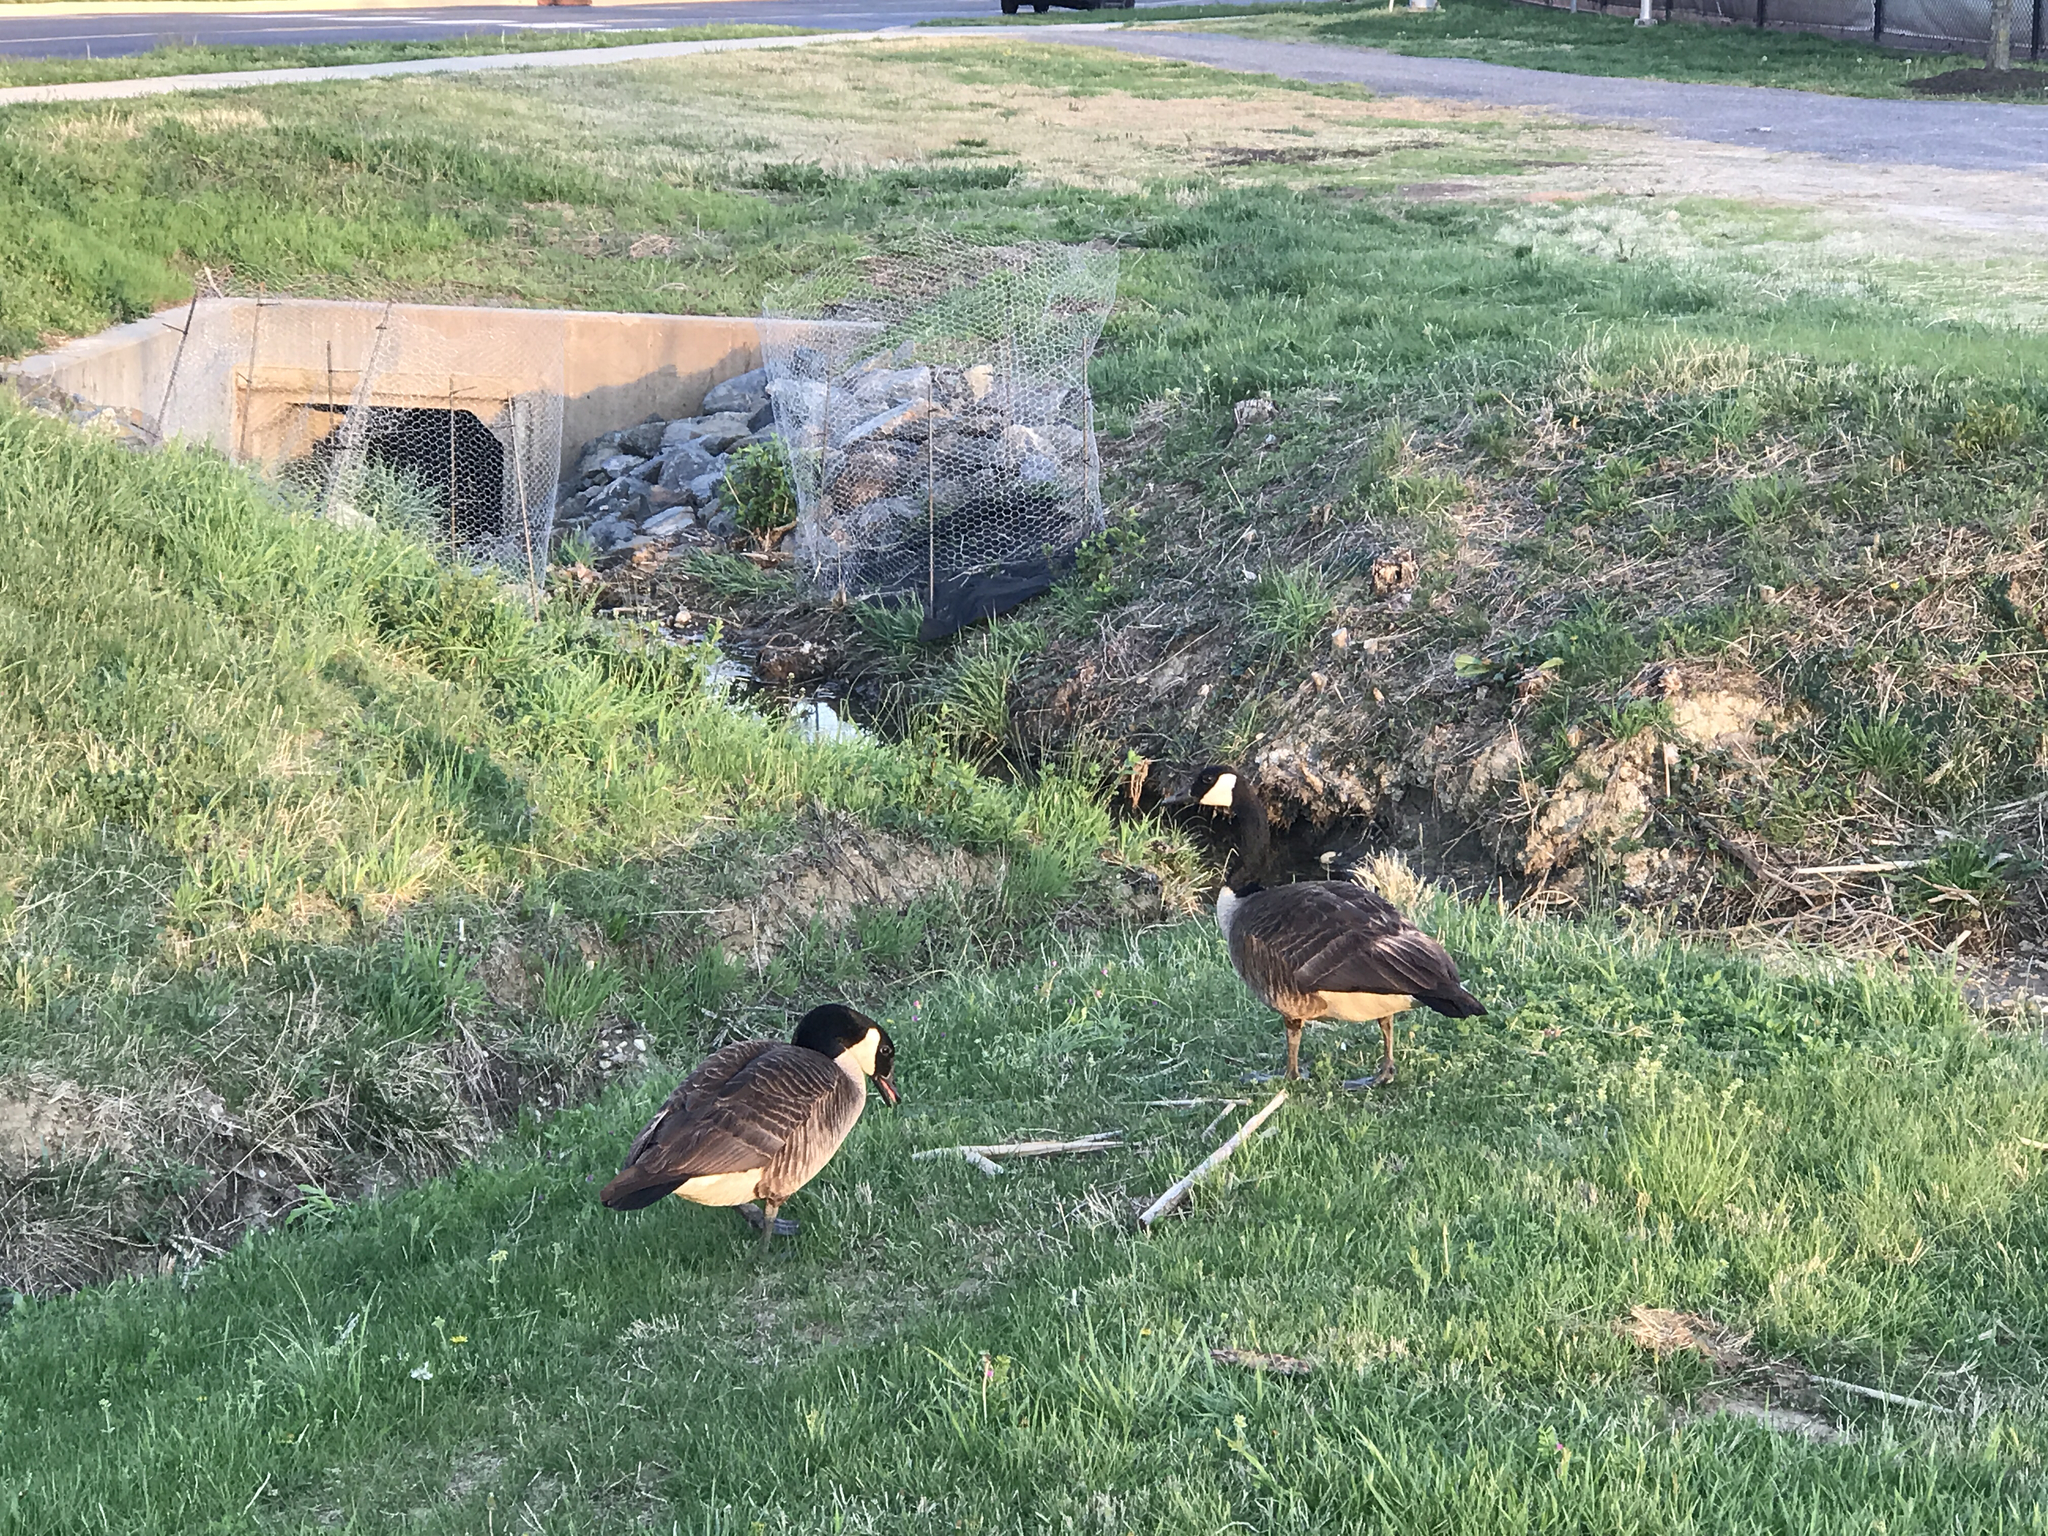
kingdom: Animalia
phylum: Chordata
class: Aves
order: Anseriformes
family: Anatidae
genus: Branta
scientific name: Branta canadensis
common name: Canada goose
